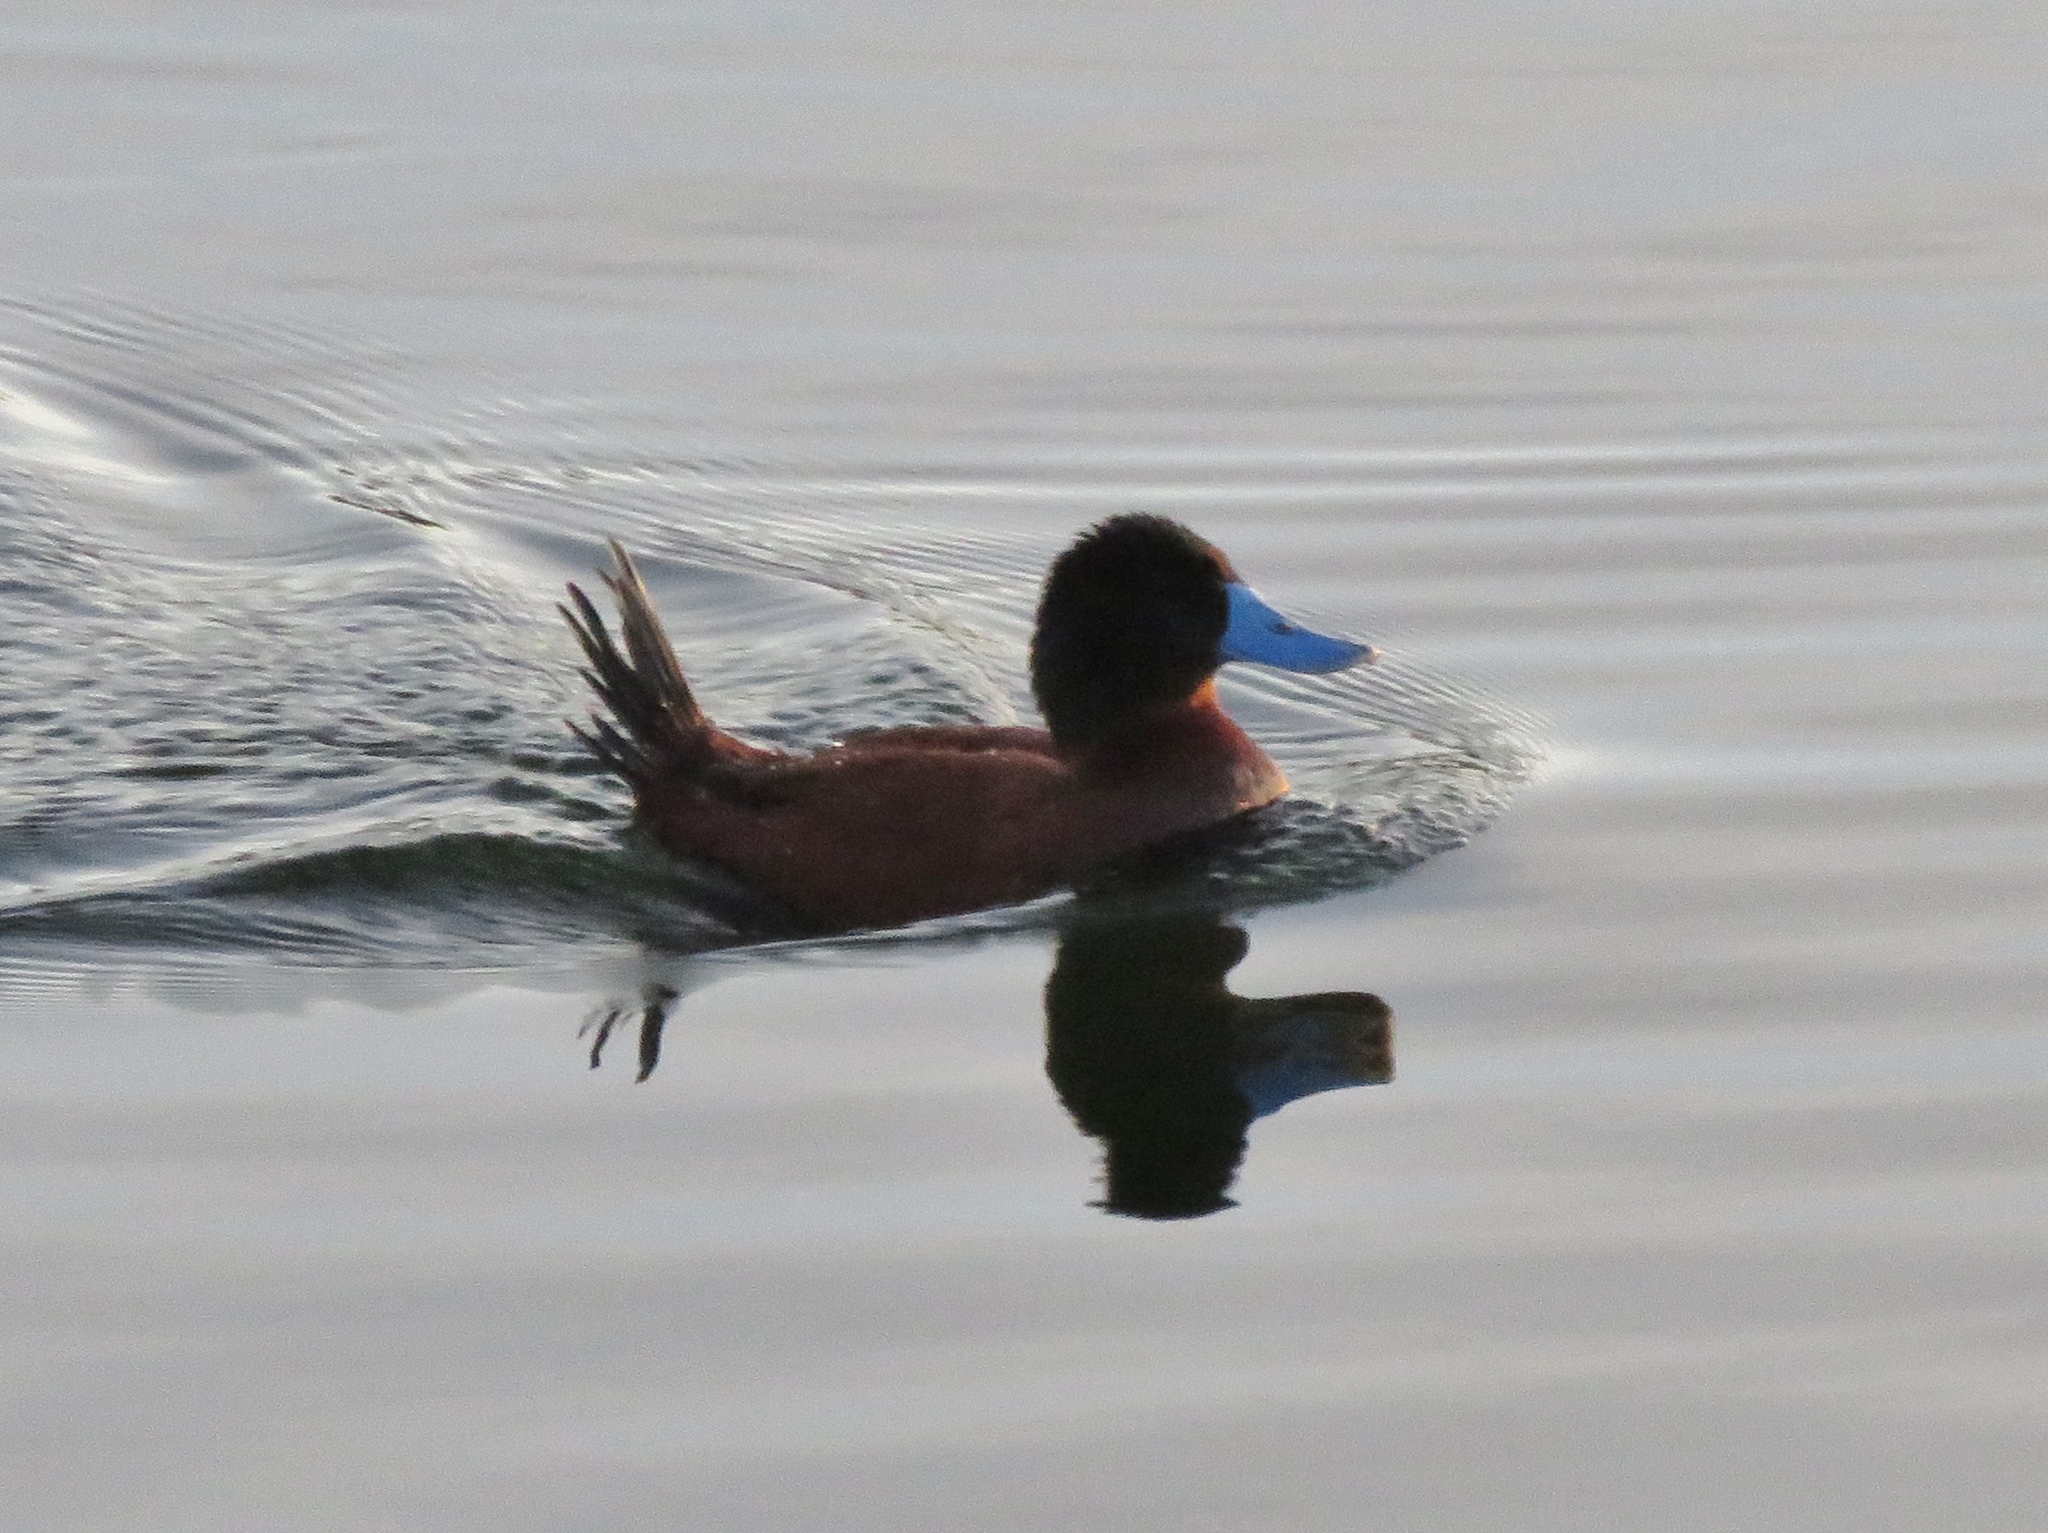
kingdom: Animalia
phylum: Chordata
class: Aves
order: Anseriformes
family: Anatidae
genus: Oxyura
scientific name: Oxyura ferruginea
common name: Andean duck
